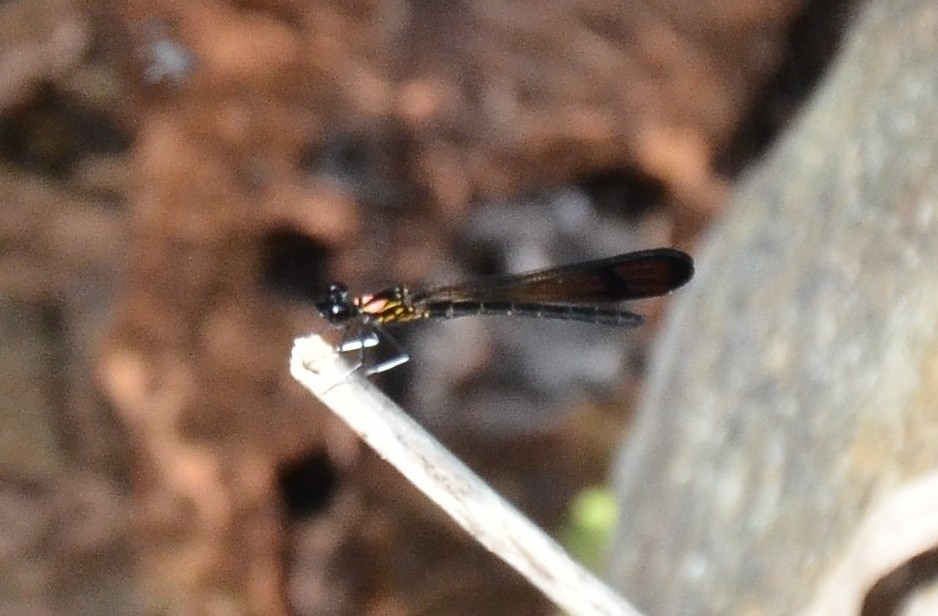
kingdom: Animalia
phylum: Arthropoda
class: Insecta
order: Odonata
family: Chlorocyphidae
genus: Heliocypha
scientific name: Heliocypha bisignata
